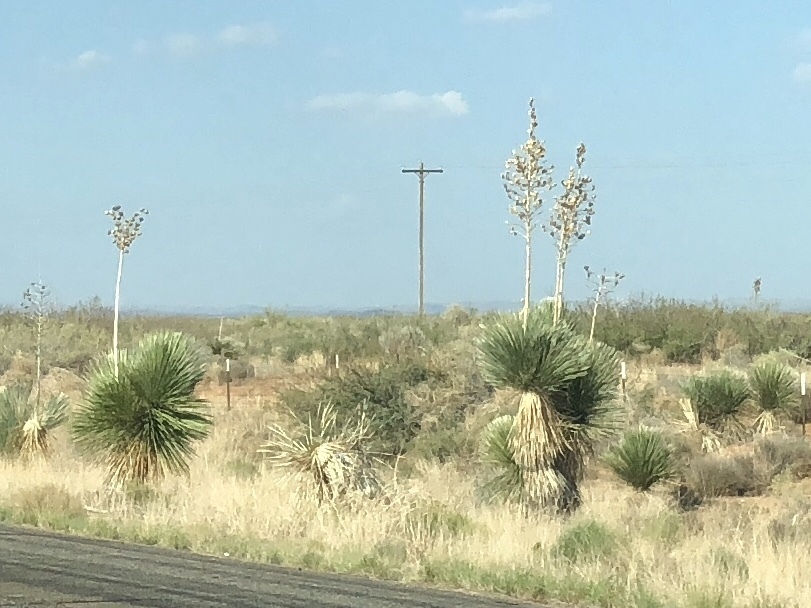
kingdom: Plantae
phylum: Tracheophyta
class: Liliopsida
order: Asparagales
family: Asparagaceae
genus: Yucca
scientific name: Yucca elata
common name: Palmella
